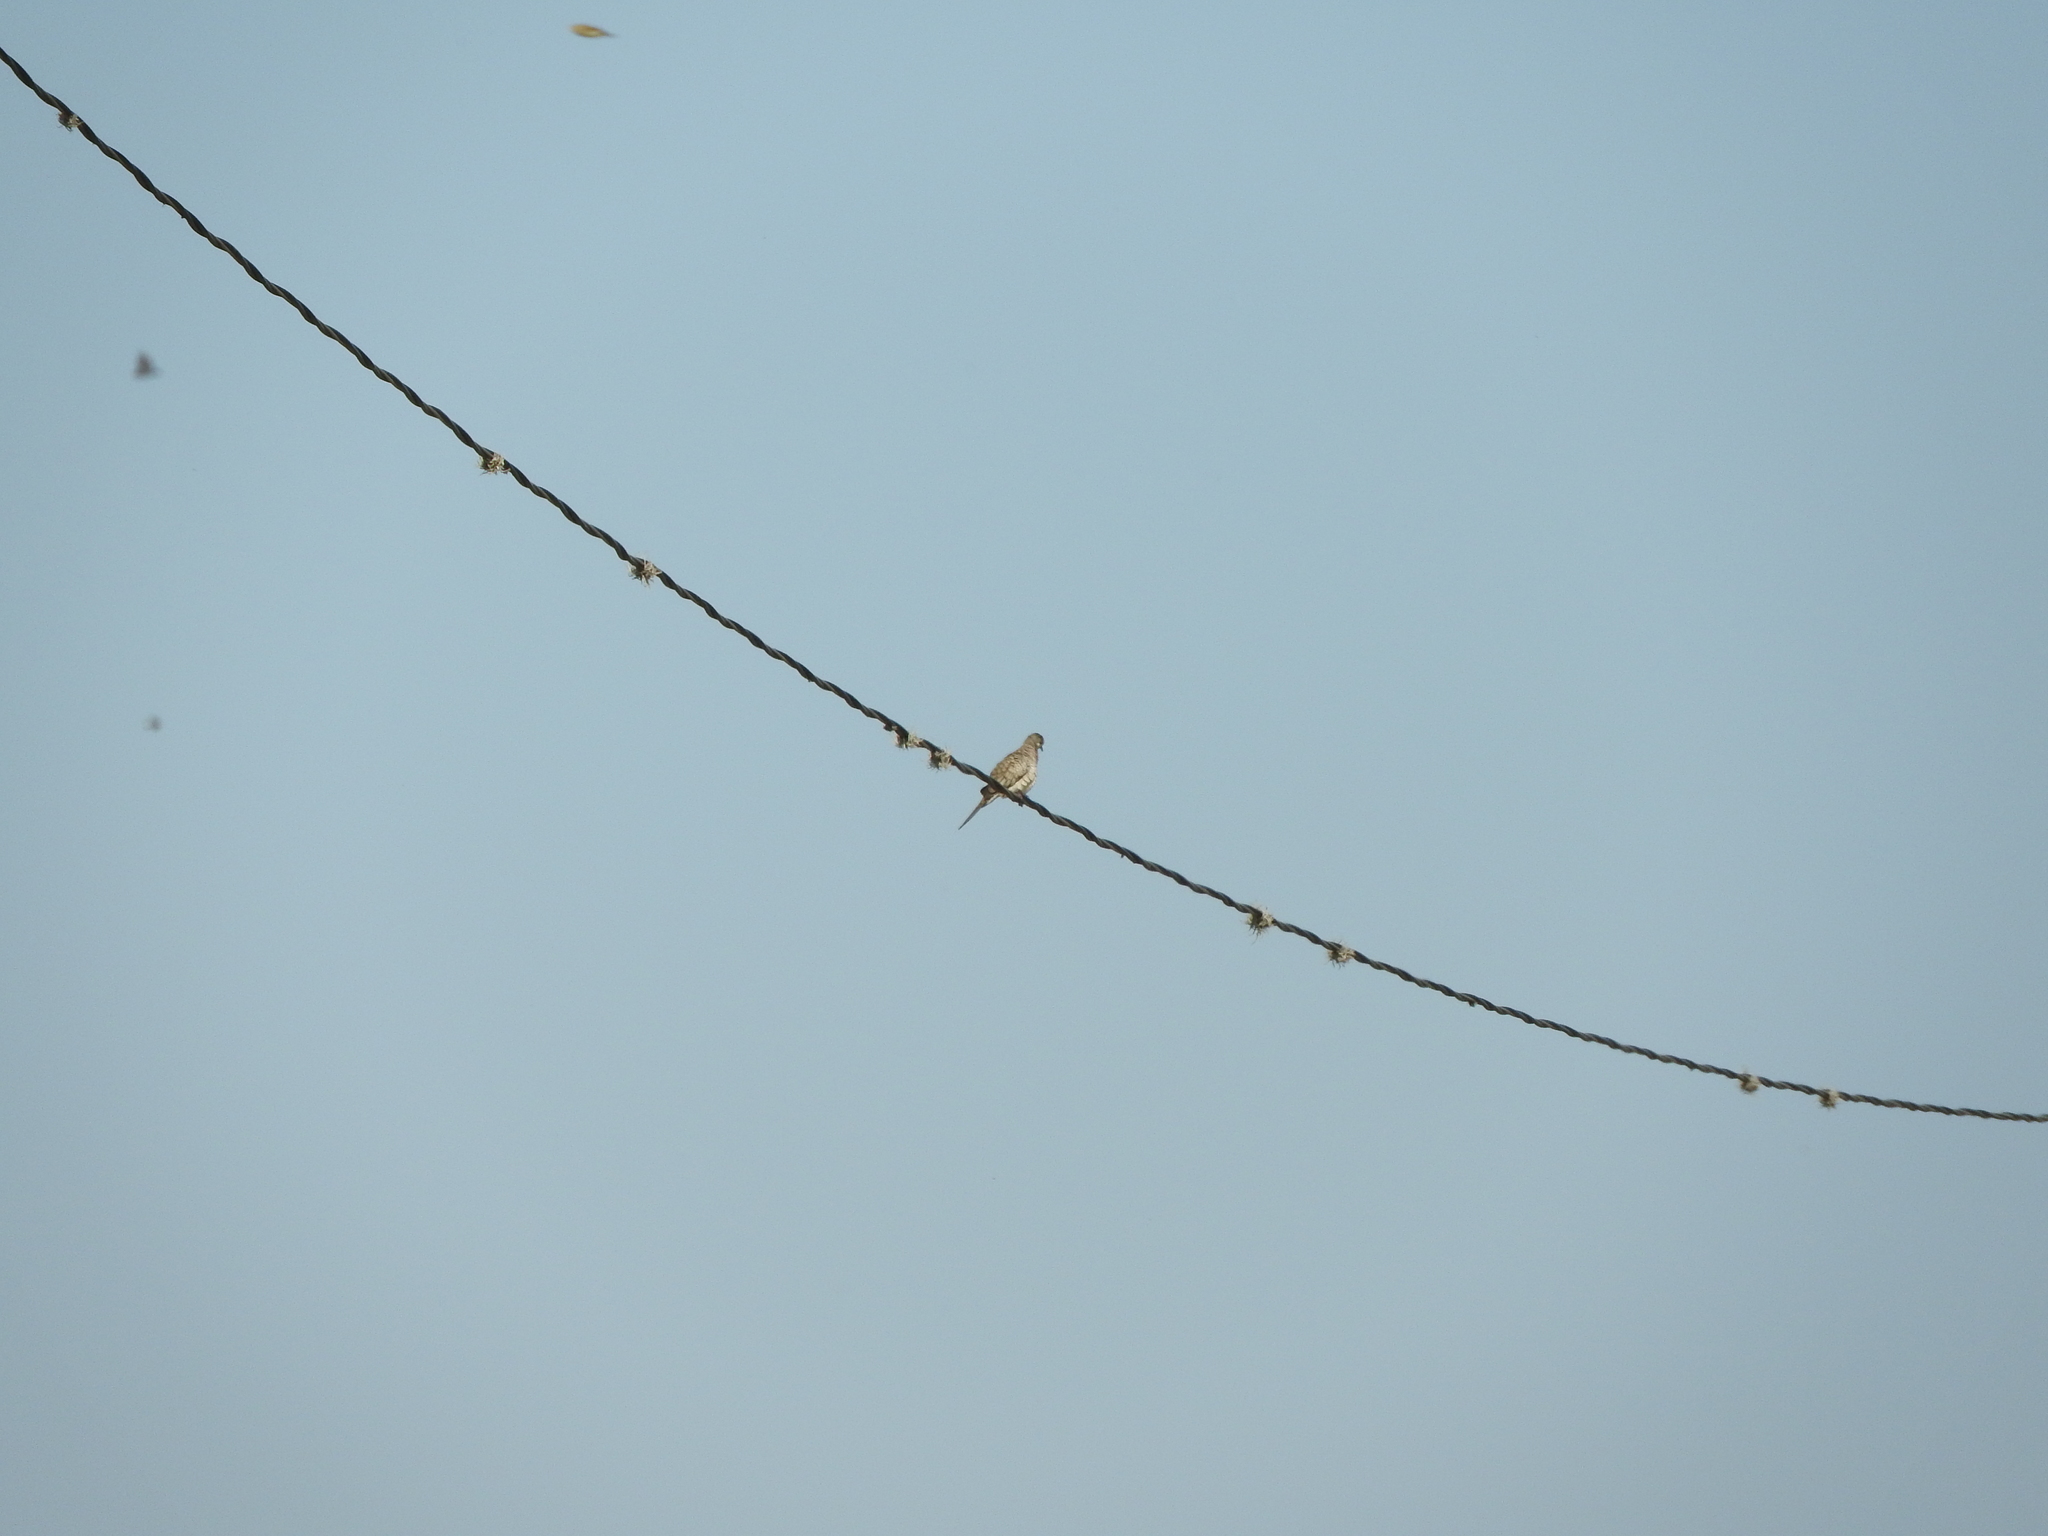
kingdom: Animalia
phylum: Chordata
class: Aves
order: Columbiformes
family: Columbidae
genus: Columbina
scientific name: Columbina inca
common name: Inca dove
